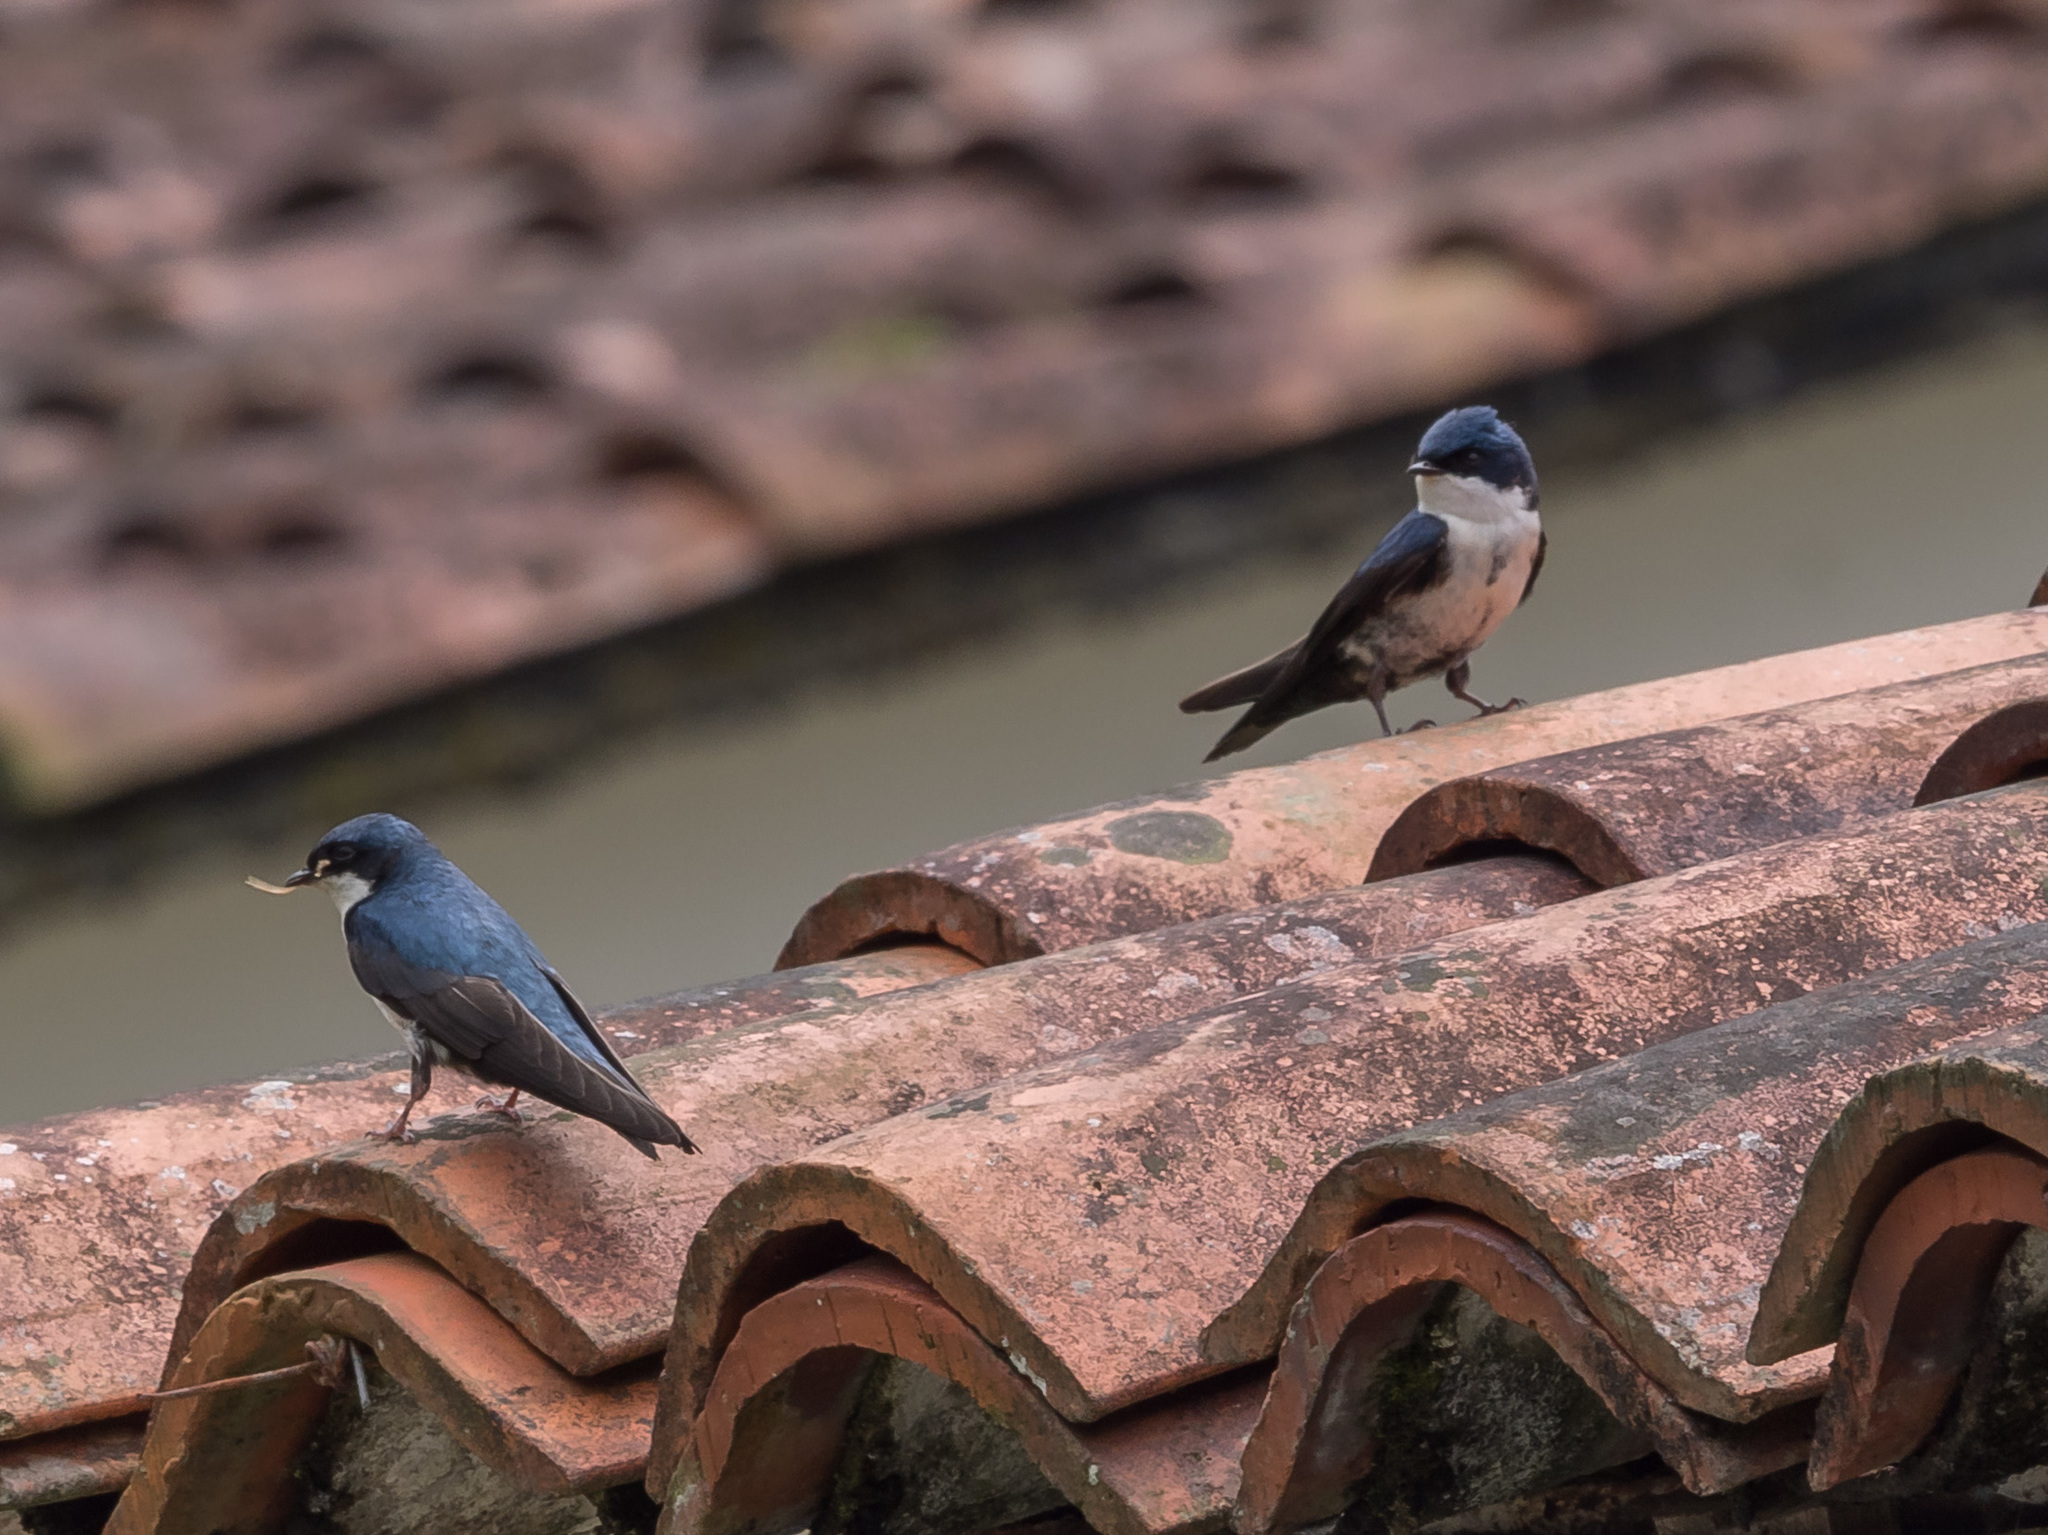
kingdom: Animalia
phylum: Chordata
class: Aves
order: Passeriformes
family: Hirundinidae
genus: Notiochelidon
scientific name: Notiochelidon cyanoleuca
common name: Blue-and-white swallow
